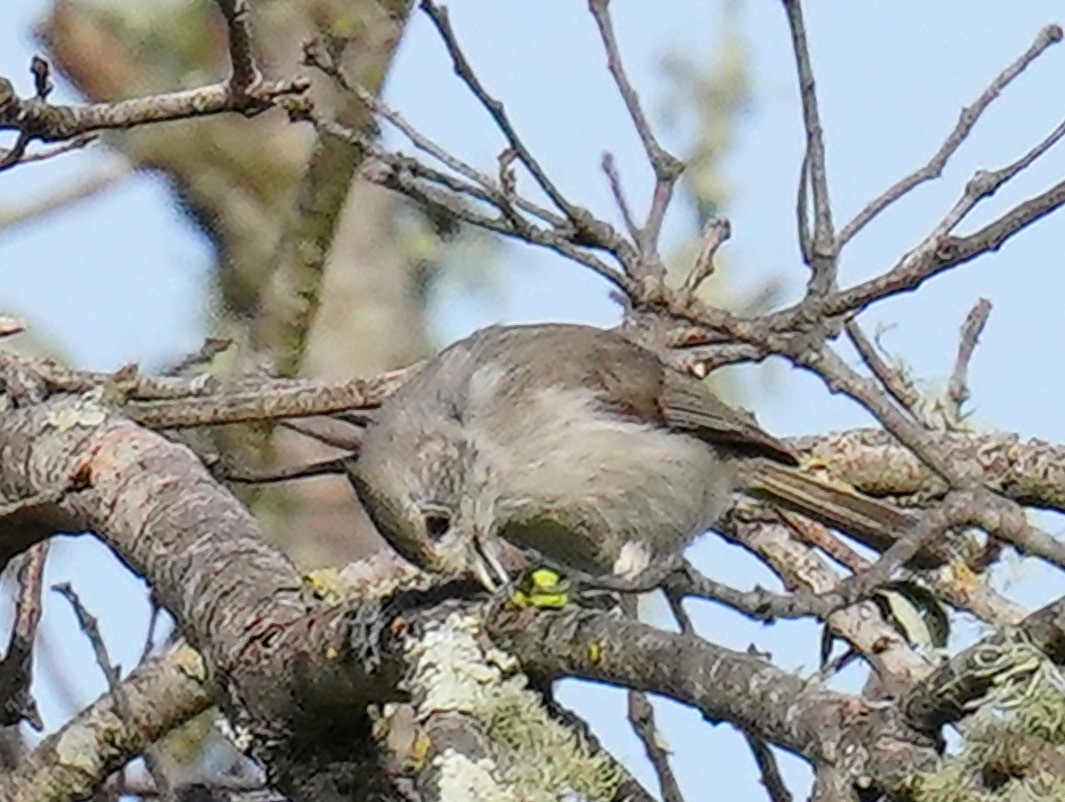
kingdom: Animalia
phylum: Chordata
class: Aves
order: Passeriformes
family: Paridae
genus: Baeolophus
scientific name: Baeolophus inornatus
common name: Oak titmouse
